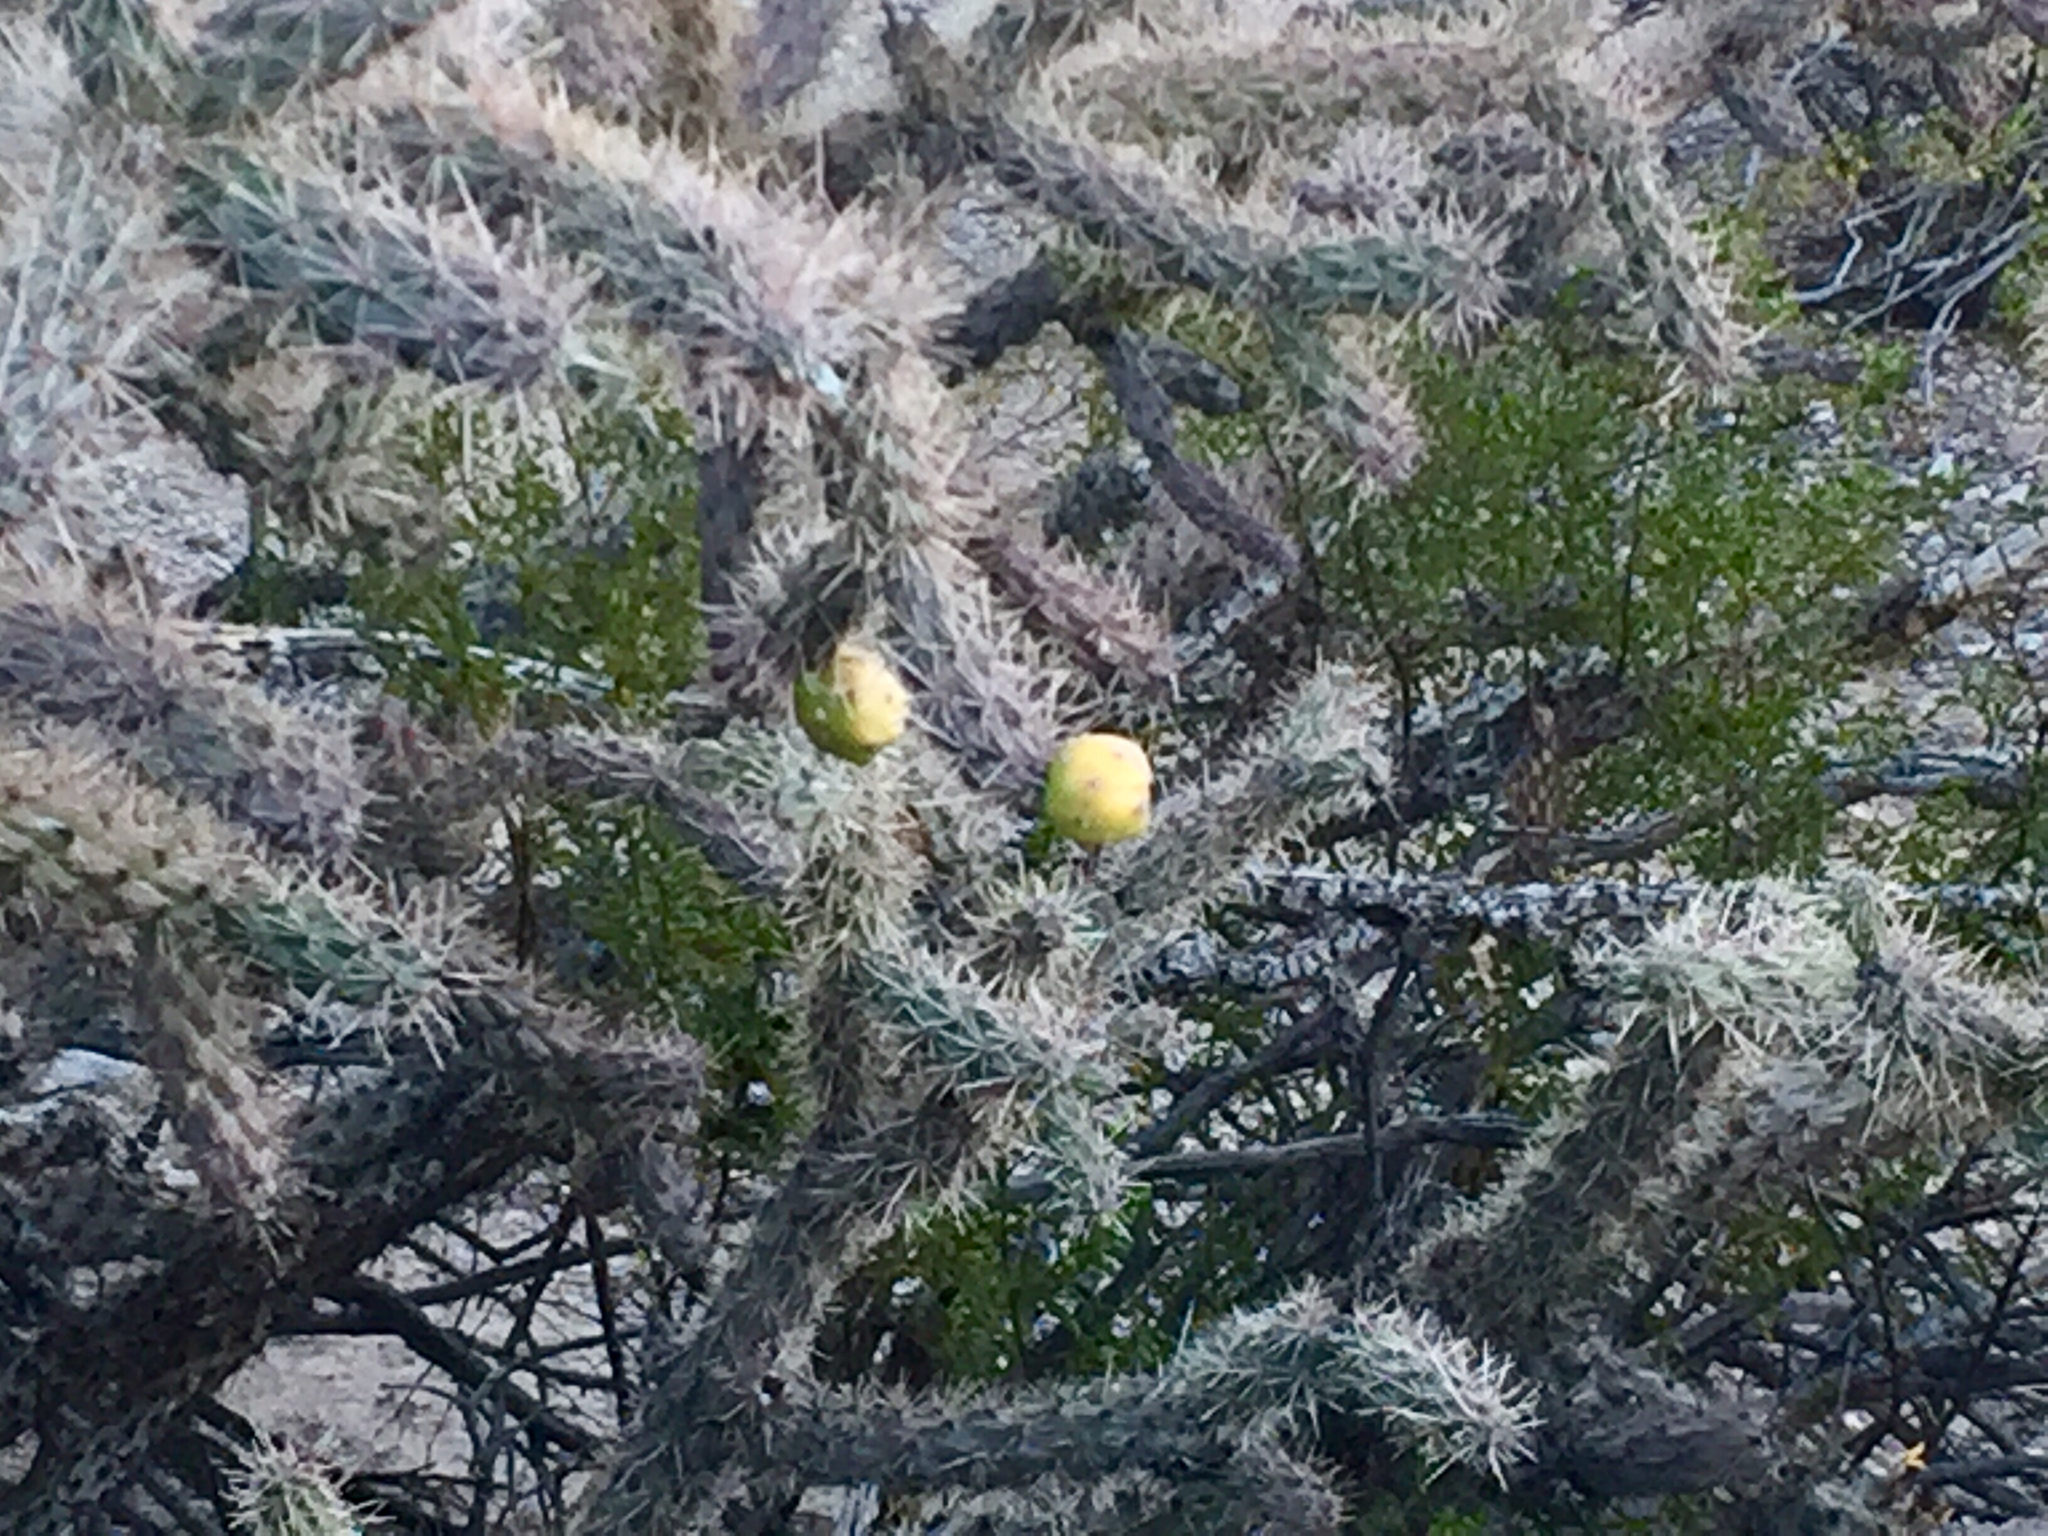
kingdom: Plantae
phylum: Tracheophyta
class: Magnoliopsida
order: Caryophyllales
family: Cactaceae
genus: Cylindropuntia
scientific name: Cylindropuntia imbricata
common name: Candelabrum cactus
